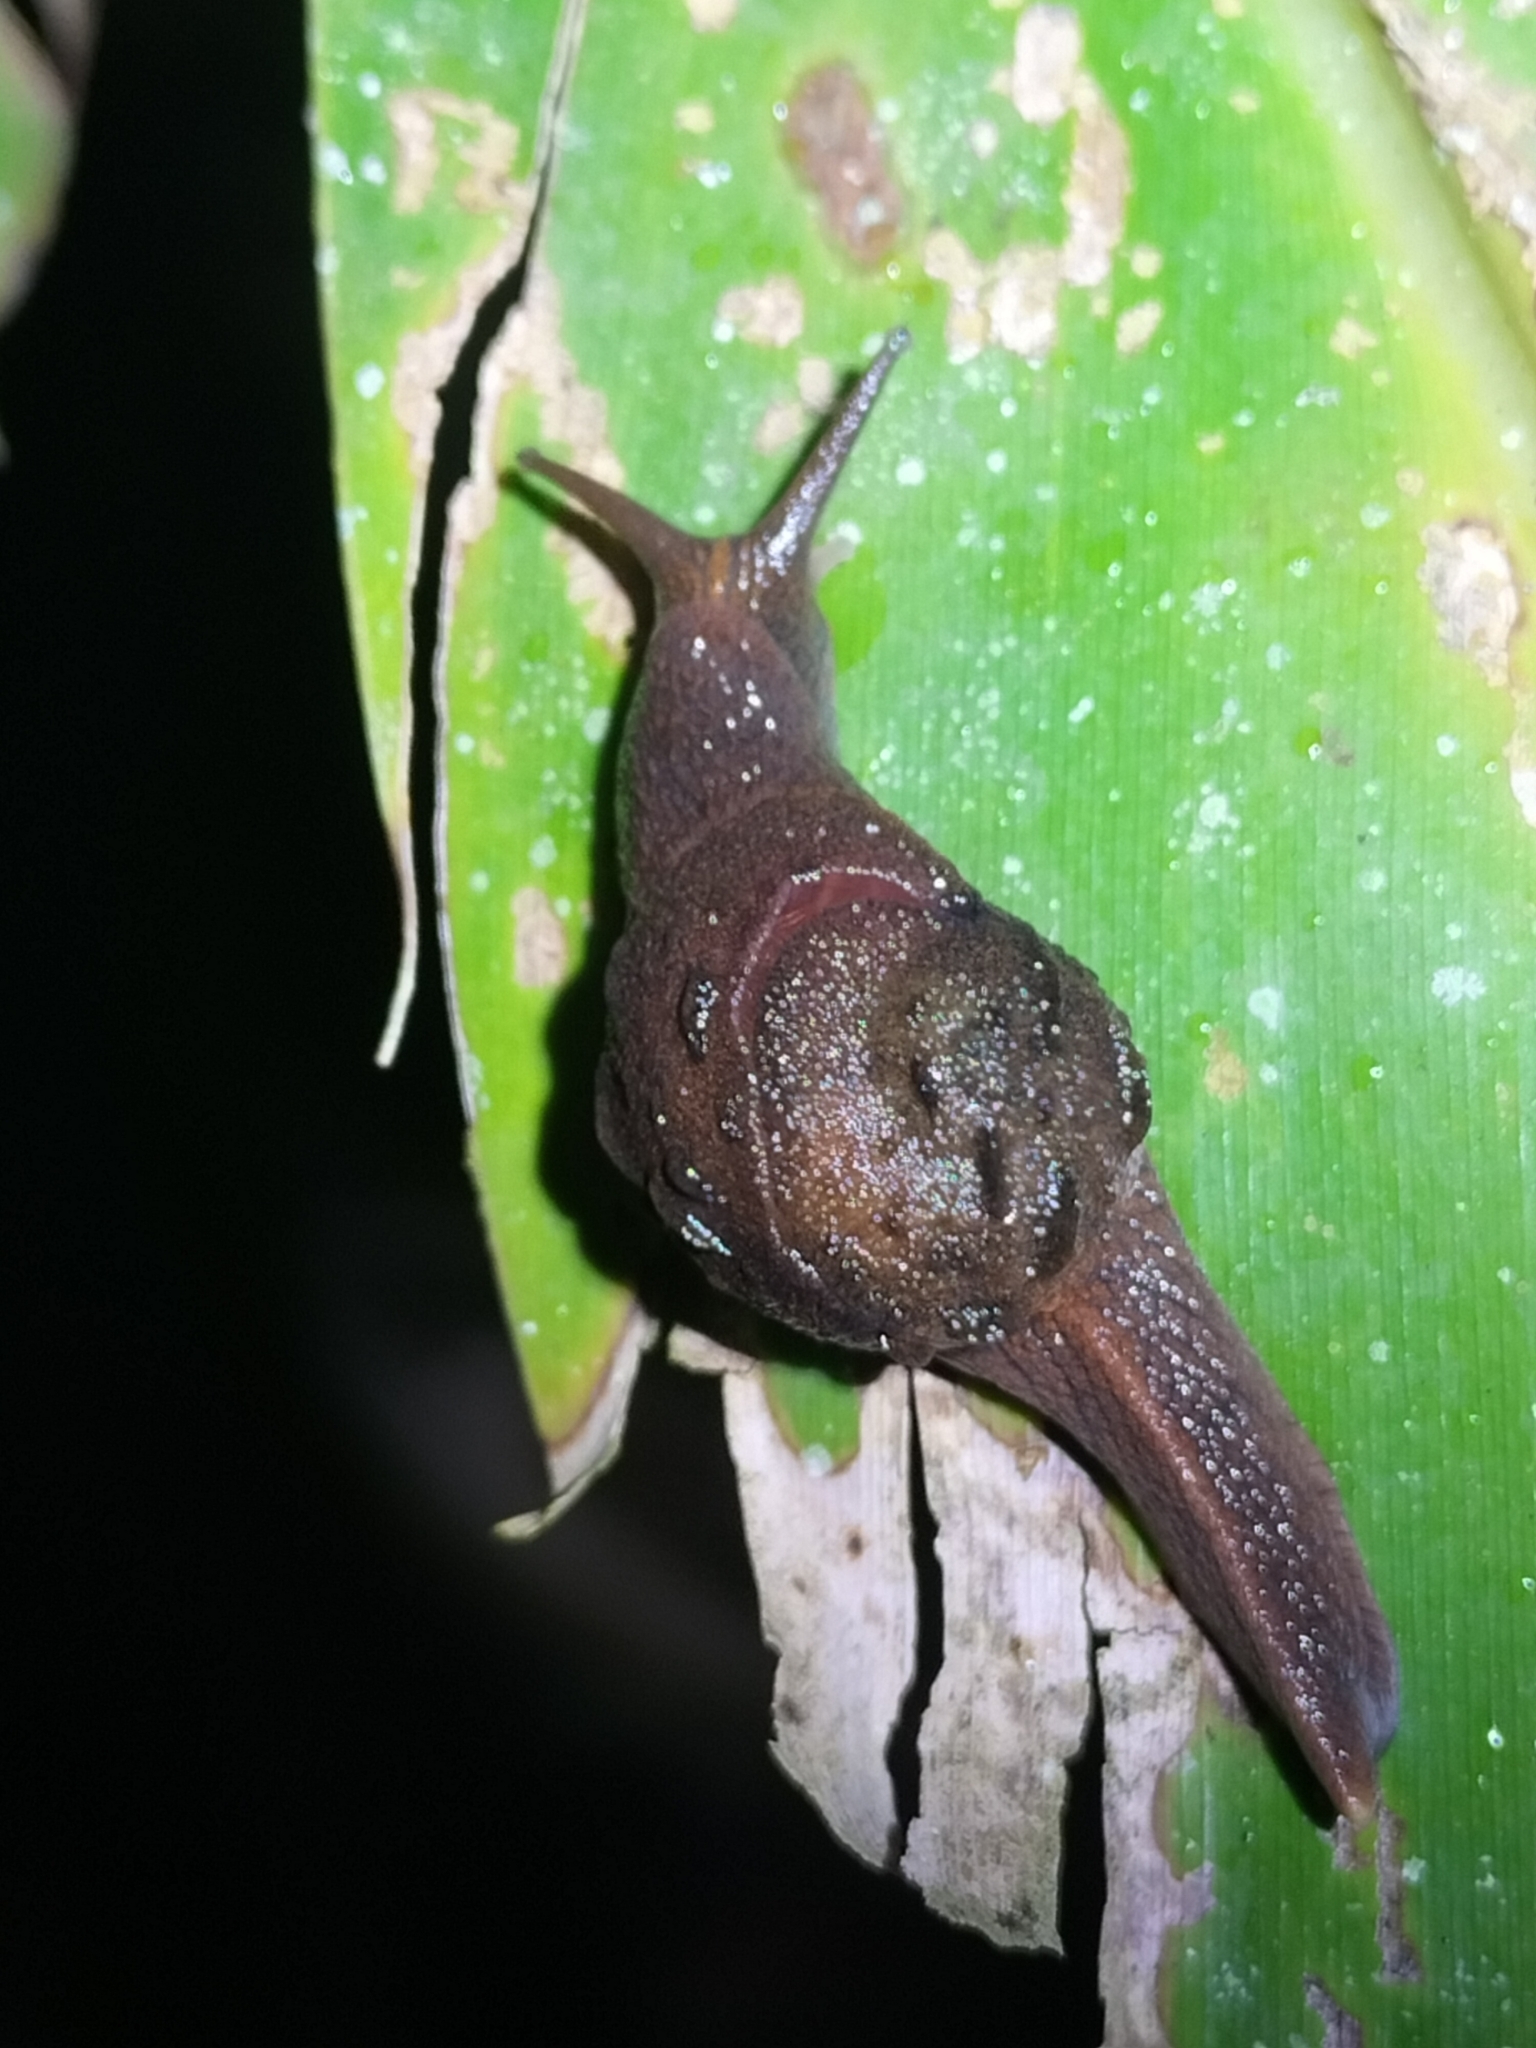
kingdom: Animalia
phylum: Mollusca
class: Gastropoda
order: Stylommatophora
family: Helicarionidae
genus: Fastosarion
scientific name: Fastosarion brazieri
